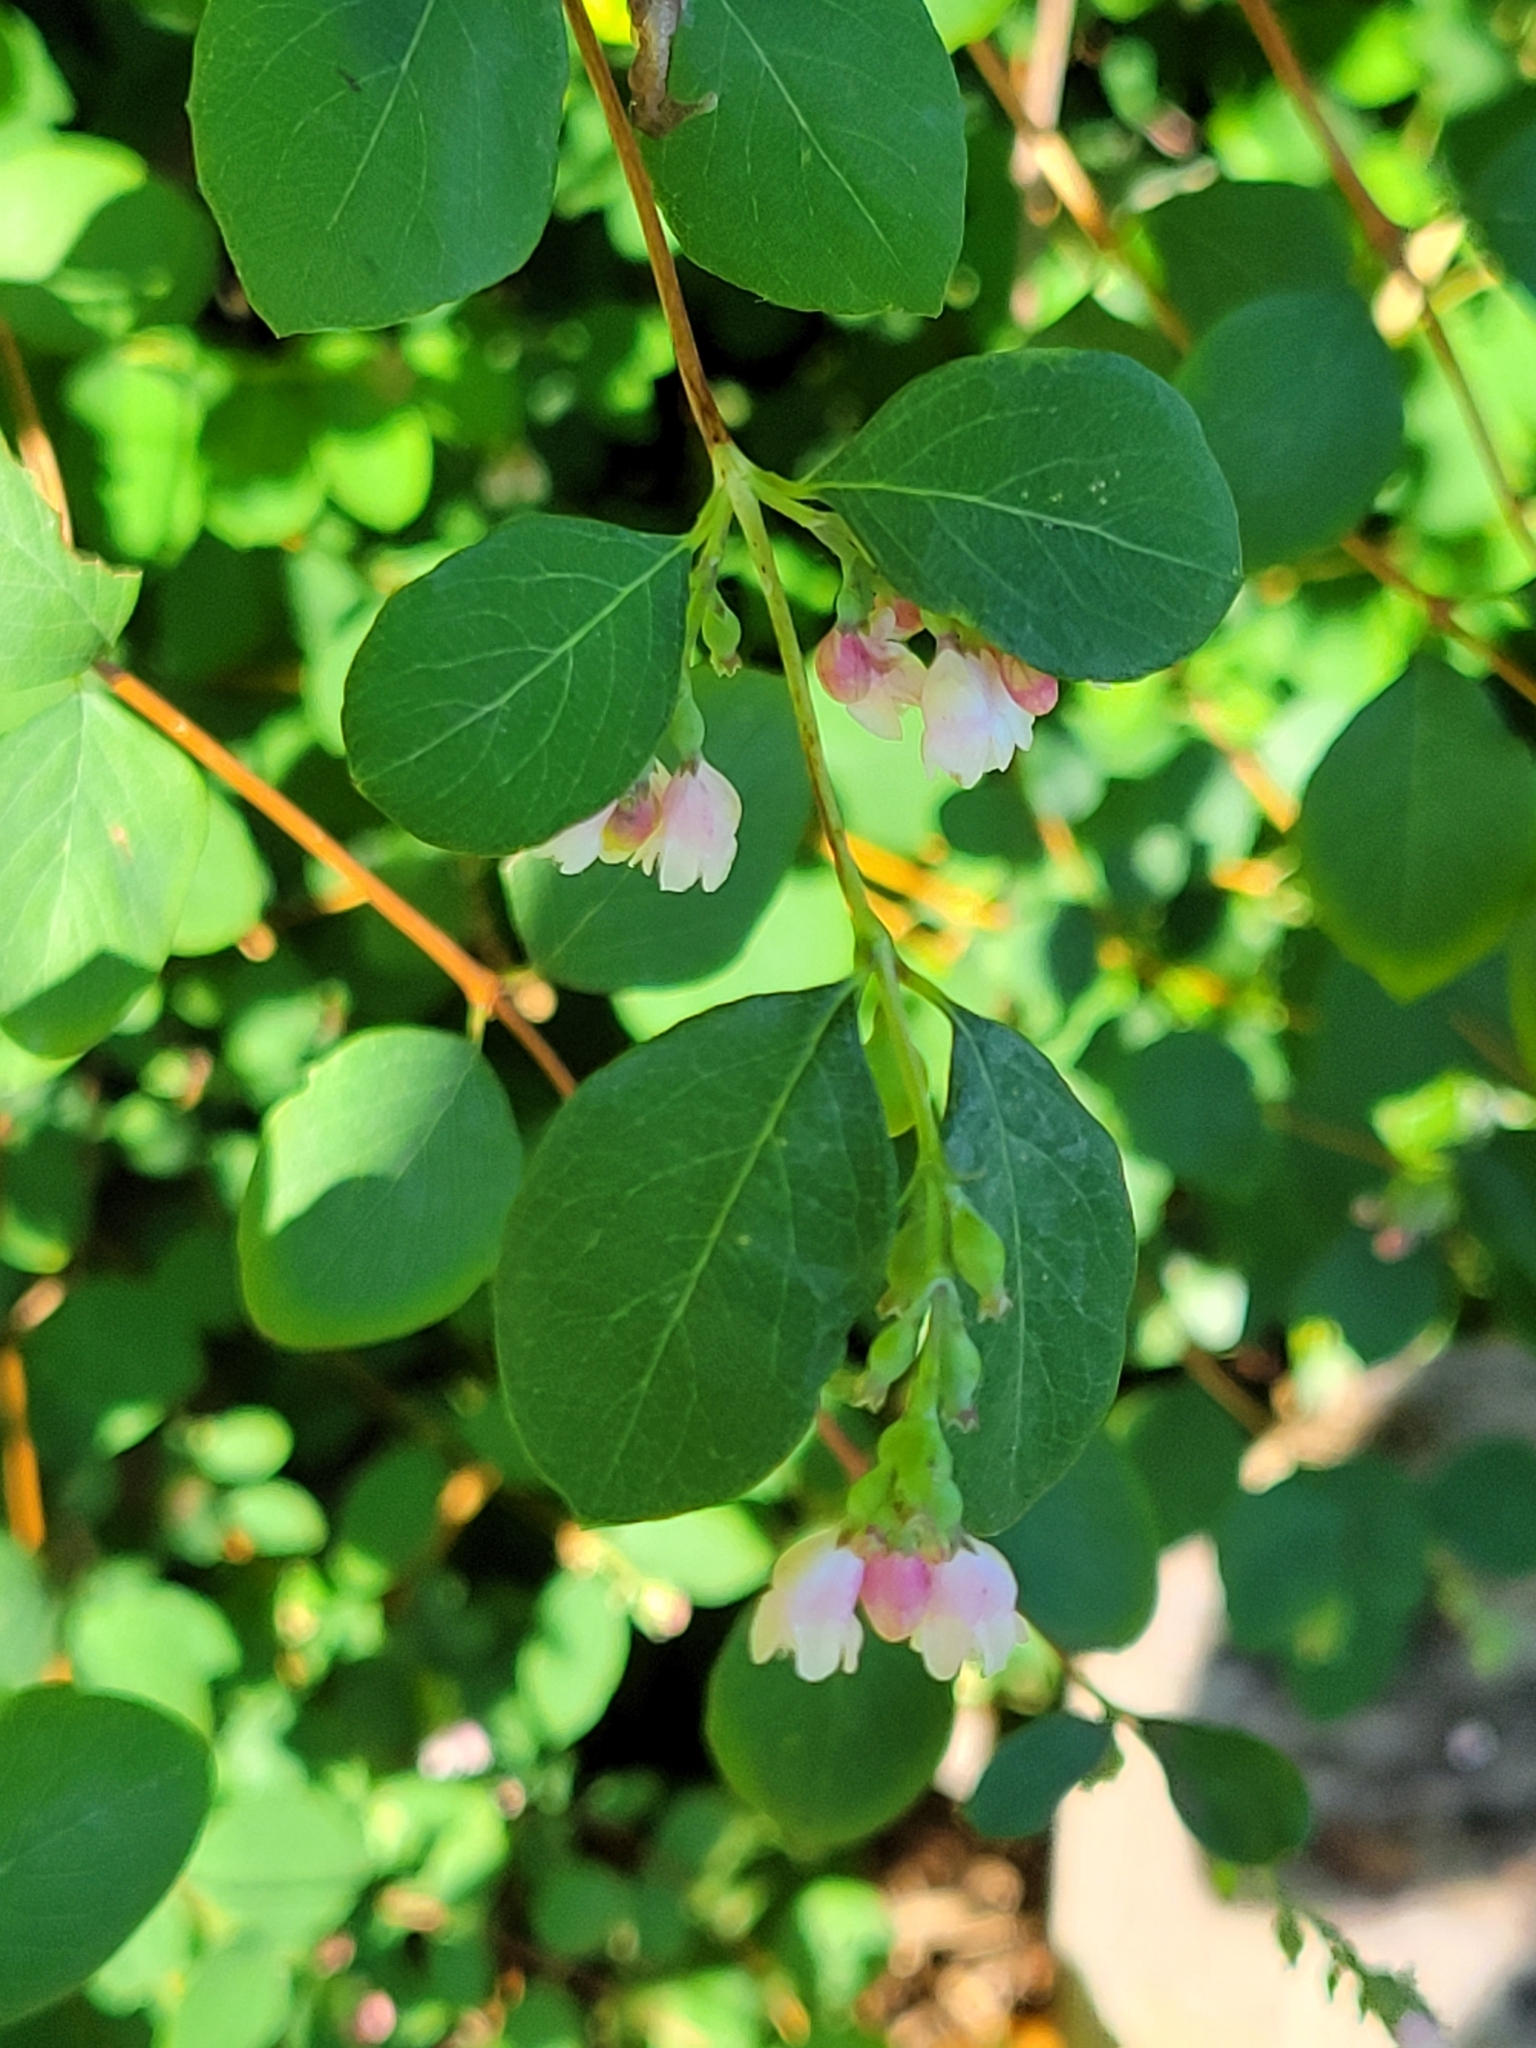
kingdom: Plantae
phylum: Tracheophyta
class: Magnoliopsida
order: Dipsacales
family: Caprifoliaceae
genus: Symphoricarpos
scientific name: Symphoricarpos albus
